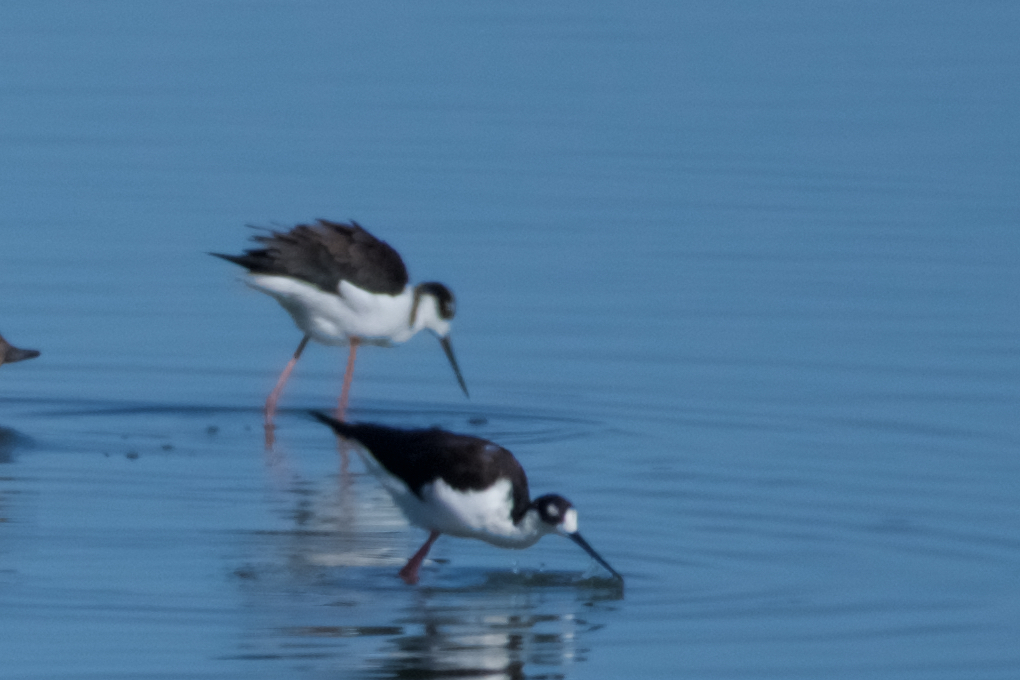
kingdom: Animalia
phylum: Chordata
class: Aves
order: Charadriiformes
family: Recurvirostridae
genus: Himantopus
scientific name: Himantopus mexicanus
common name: Black-necked stilt
